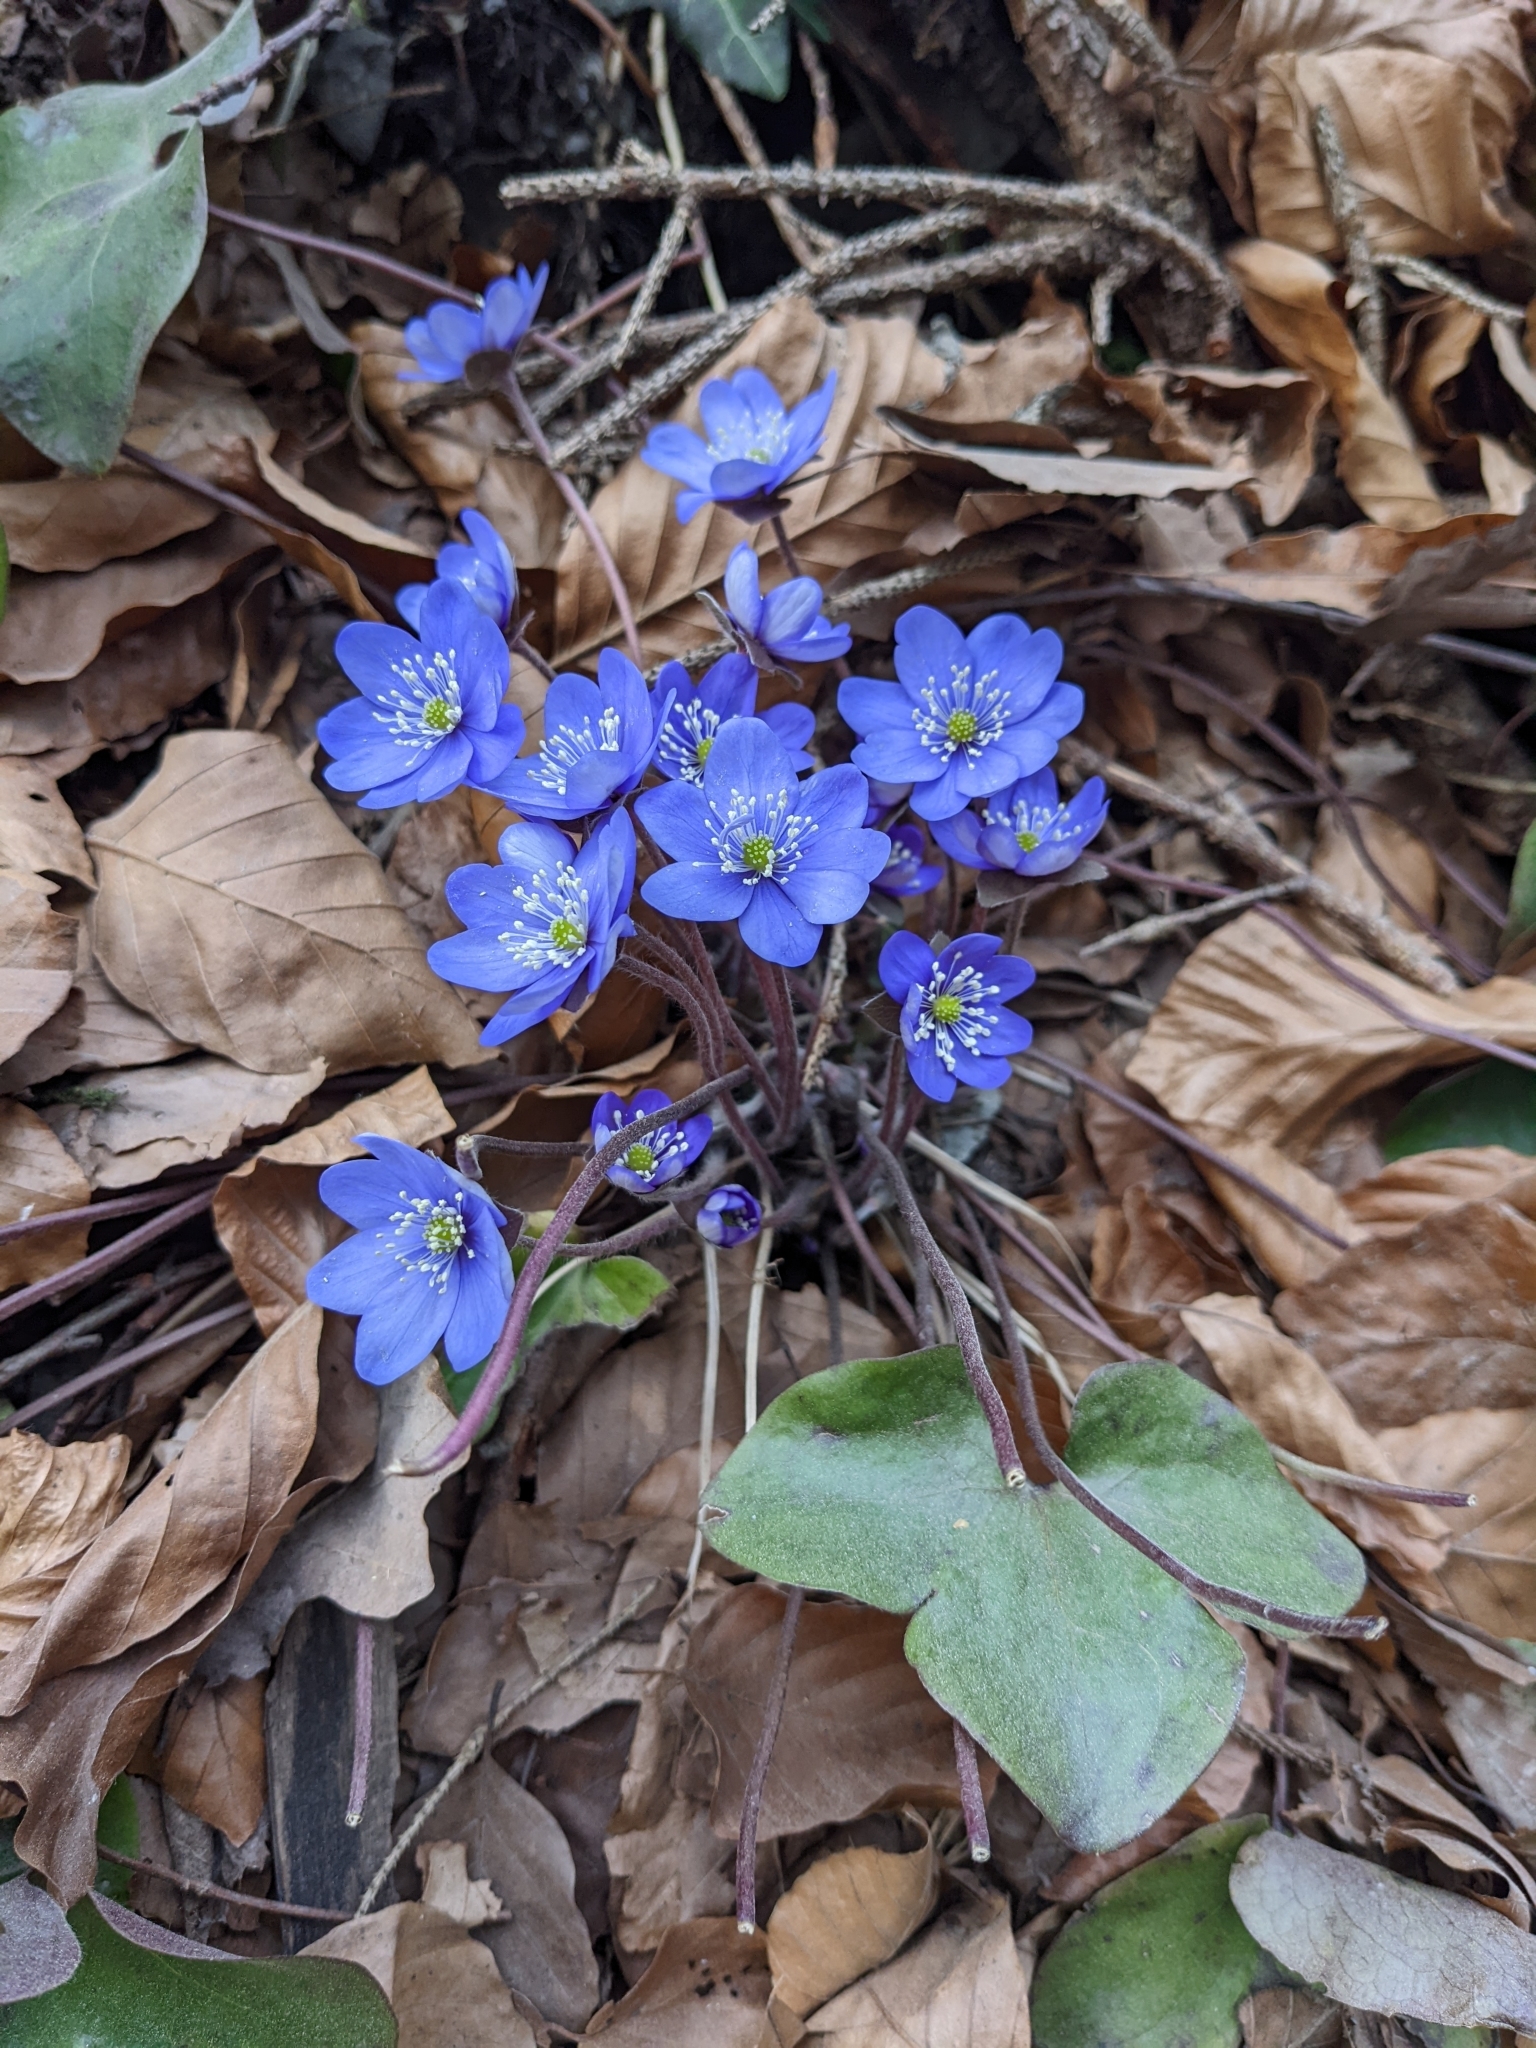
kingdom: Plantae
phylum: Tracheophyta
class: Magnoliopsida
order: Ranunculales
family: Ranunculaceae
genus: Hepatica
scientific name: Hepatica nobilis
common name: Liverleaf
